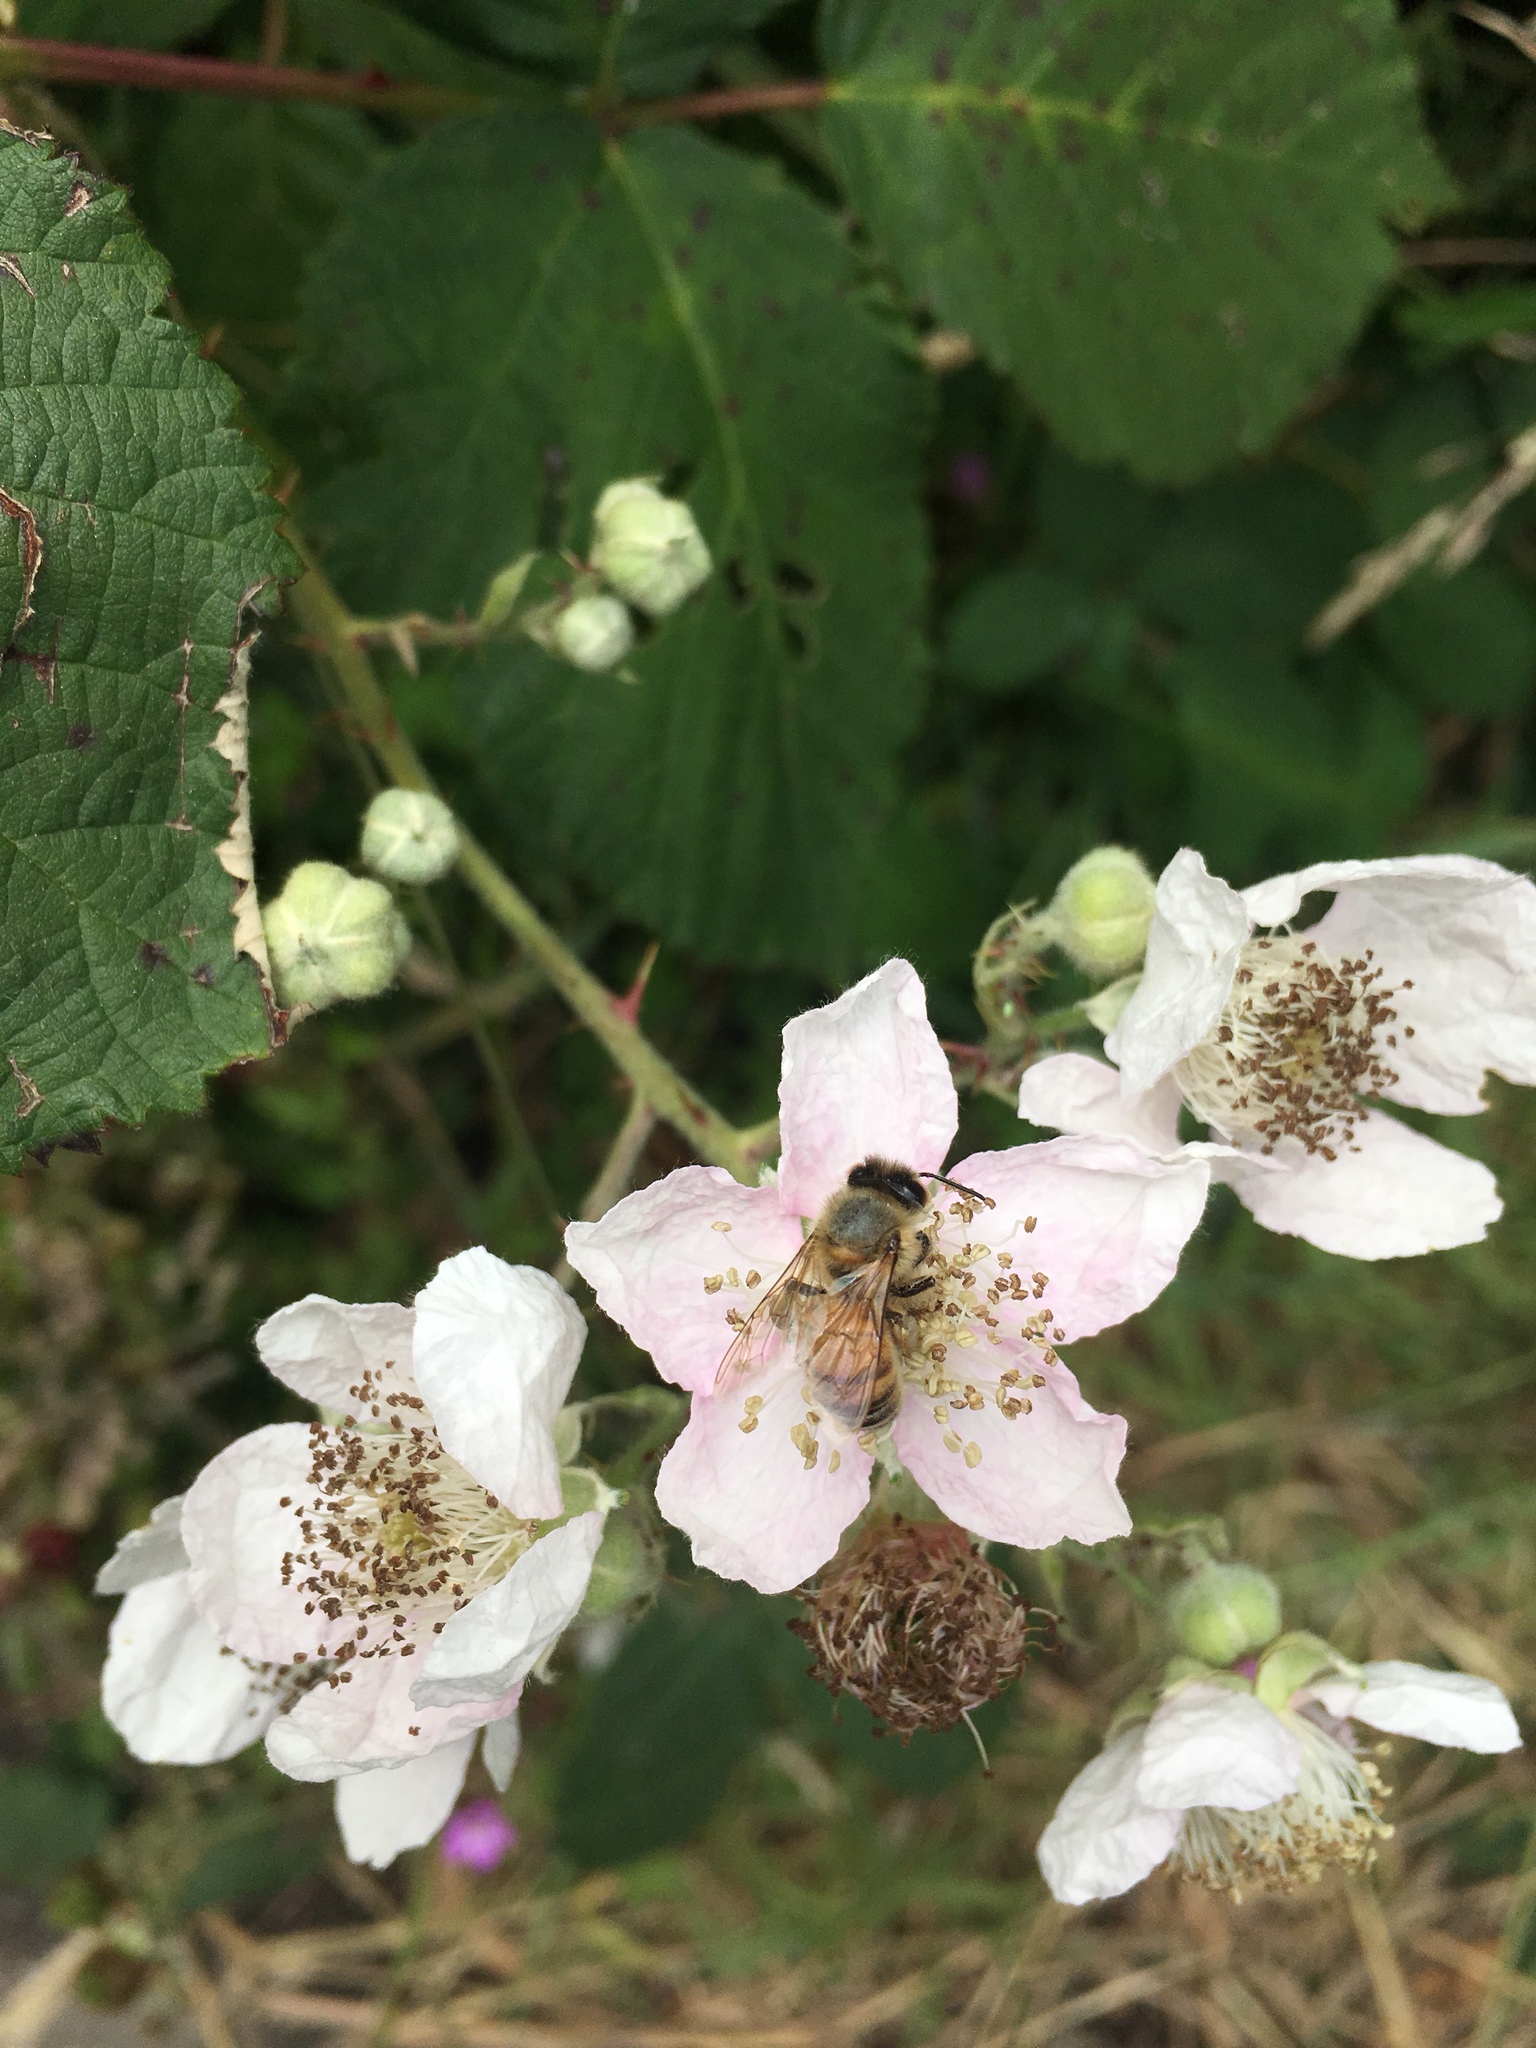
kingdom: Animalia
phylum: Arthropoda
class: Insecta
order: Hymenoptera
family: Apidae
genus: Apis
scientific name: Apis mellifera
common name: Honey bee
